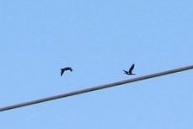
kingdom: Animalia
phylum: Chordata
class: Aves
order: Suliformes
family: Phalacrocoracidae
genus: Phalacrocorax
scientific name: Phalacrocorax carbo
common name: Great cormorant
